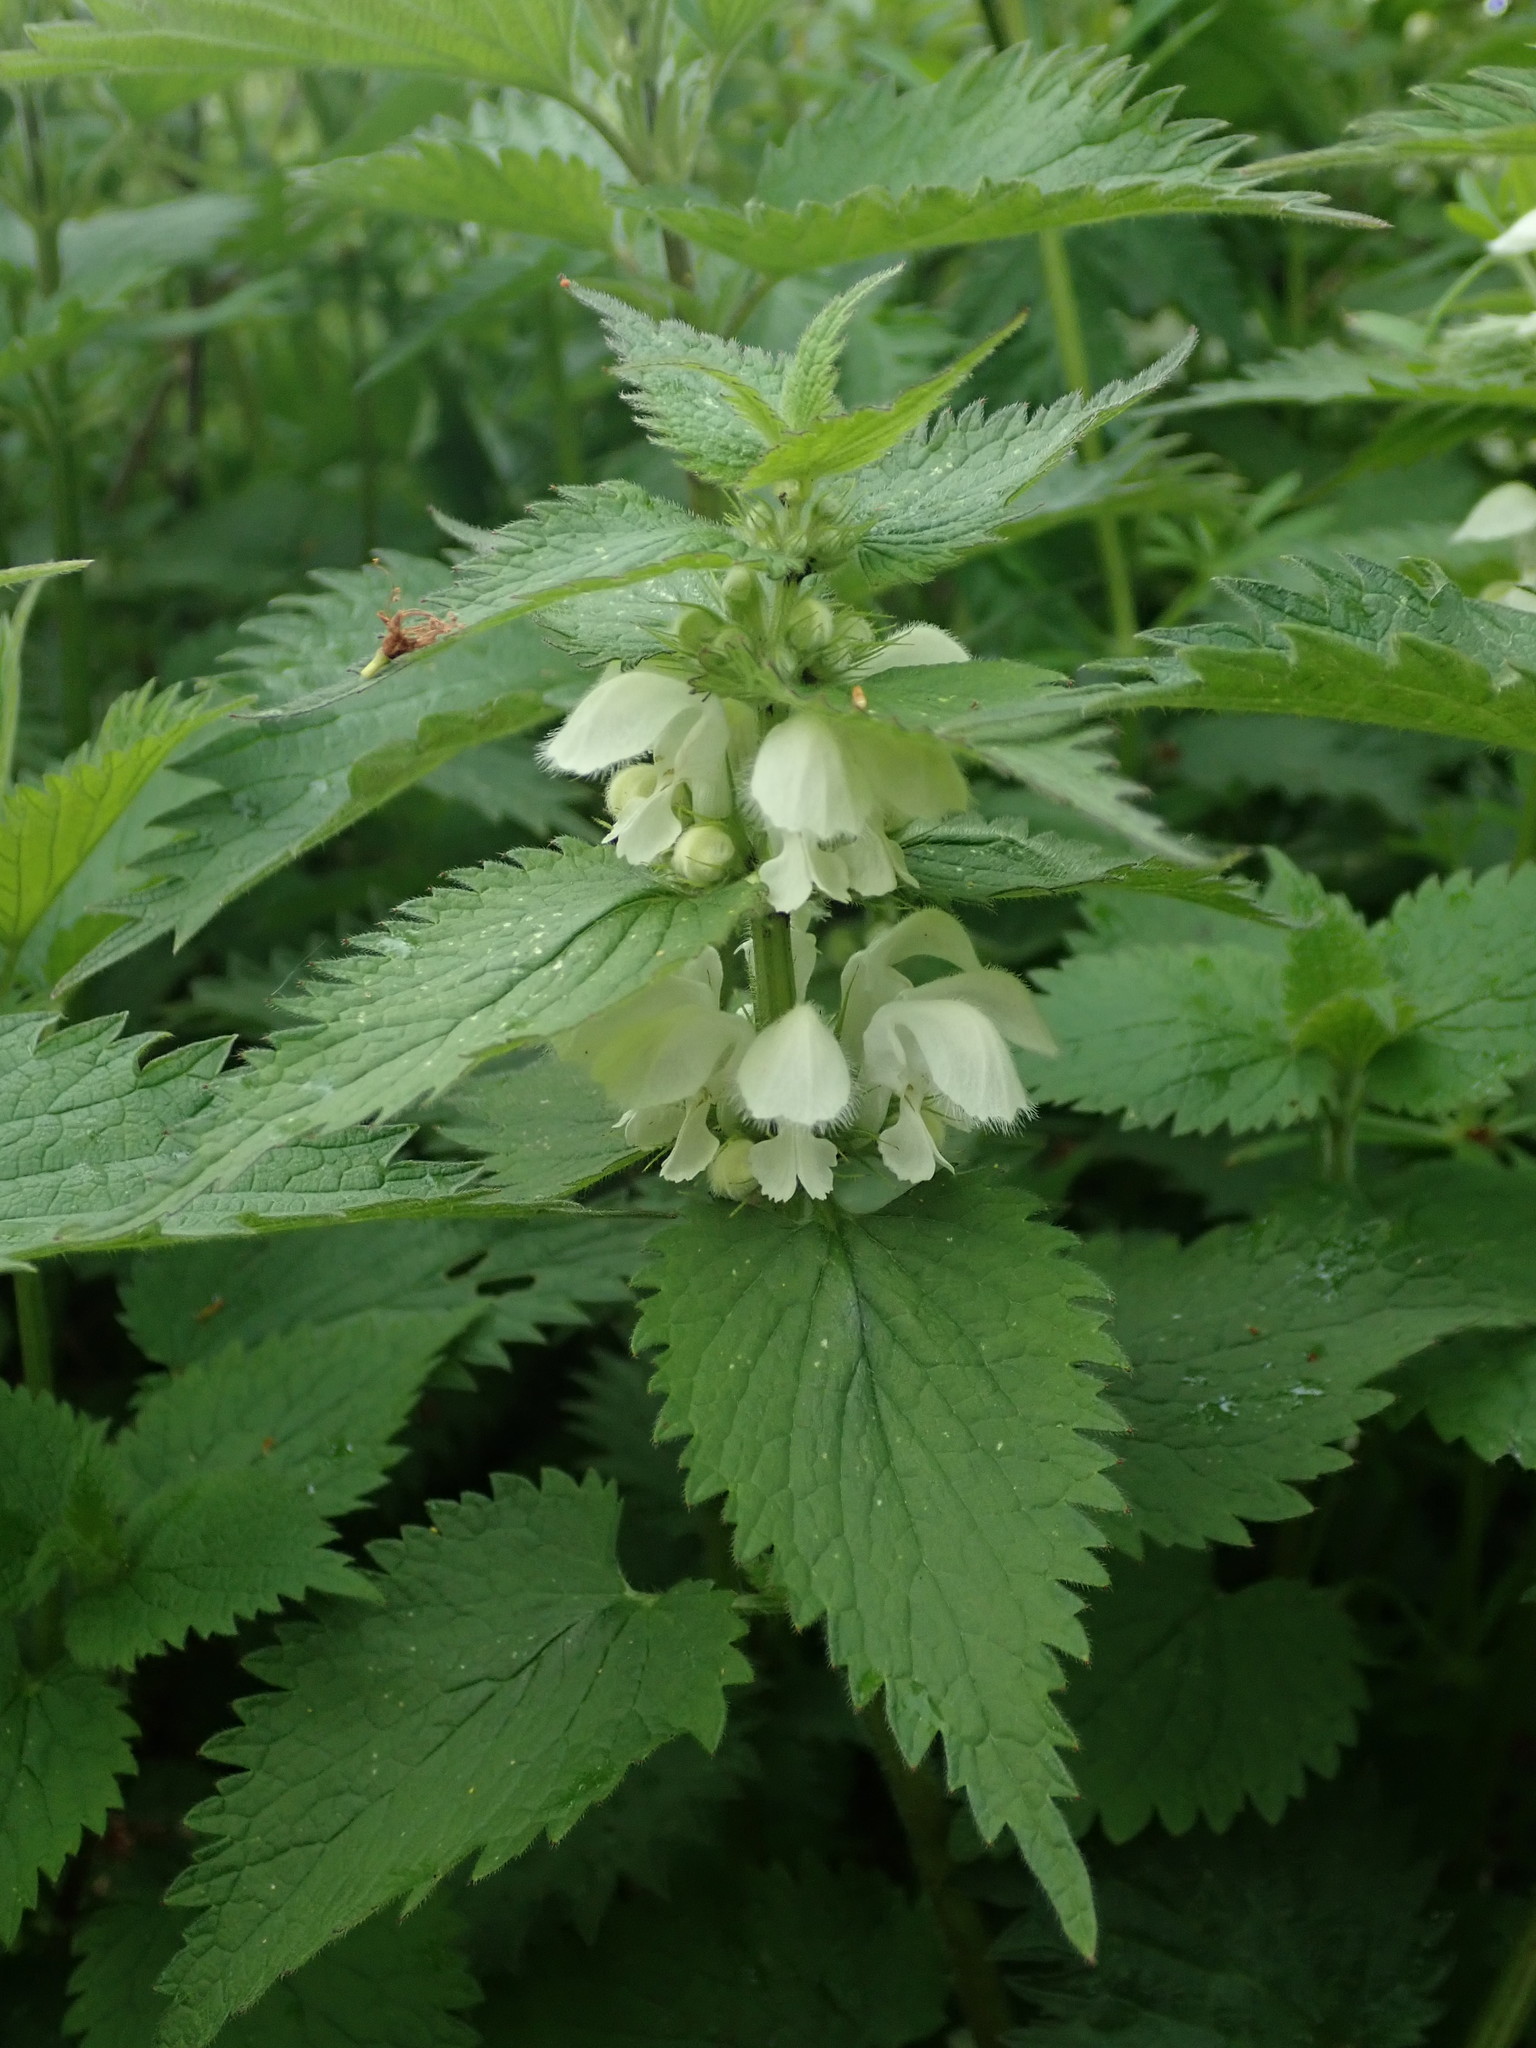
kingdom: Plantae
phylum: Tracheophyta
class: Magnoliopsida
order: Lamiales
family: Lamiaceae
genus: Lamium
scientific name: Lamium album
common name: White dead-nettle
